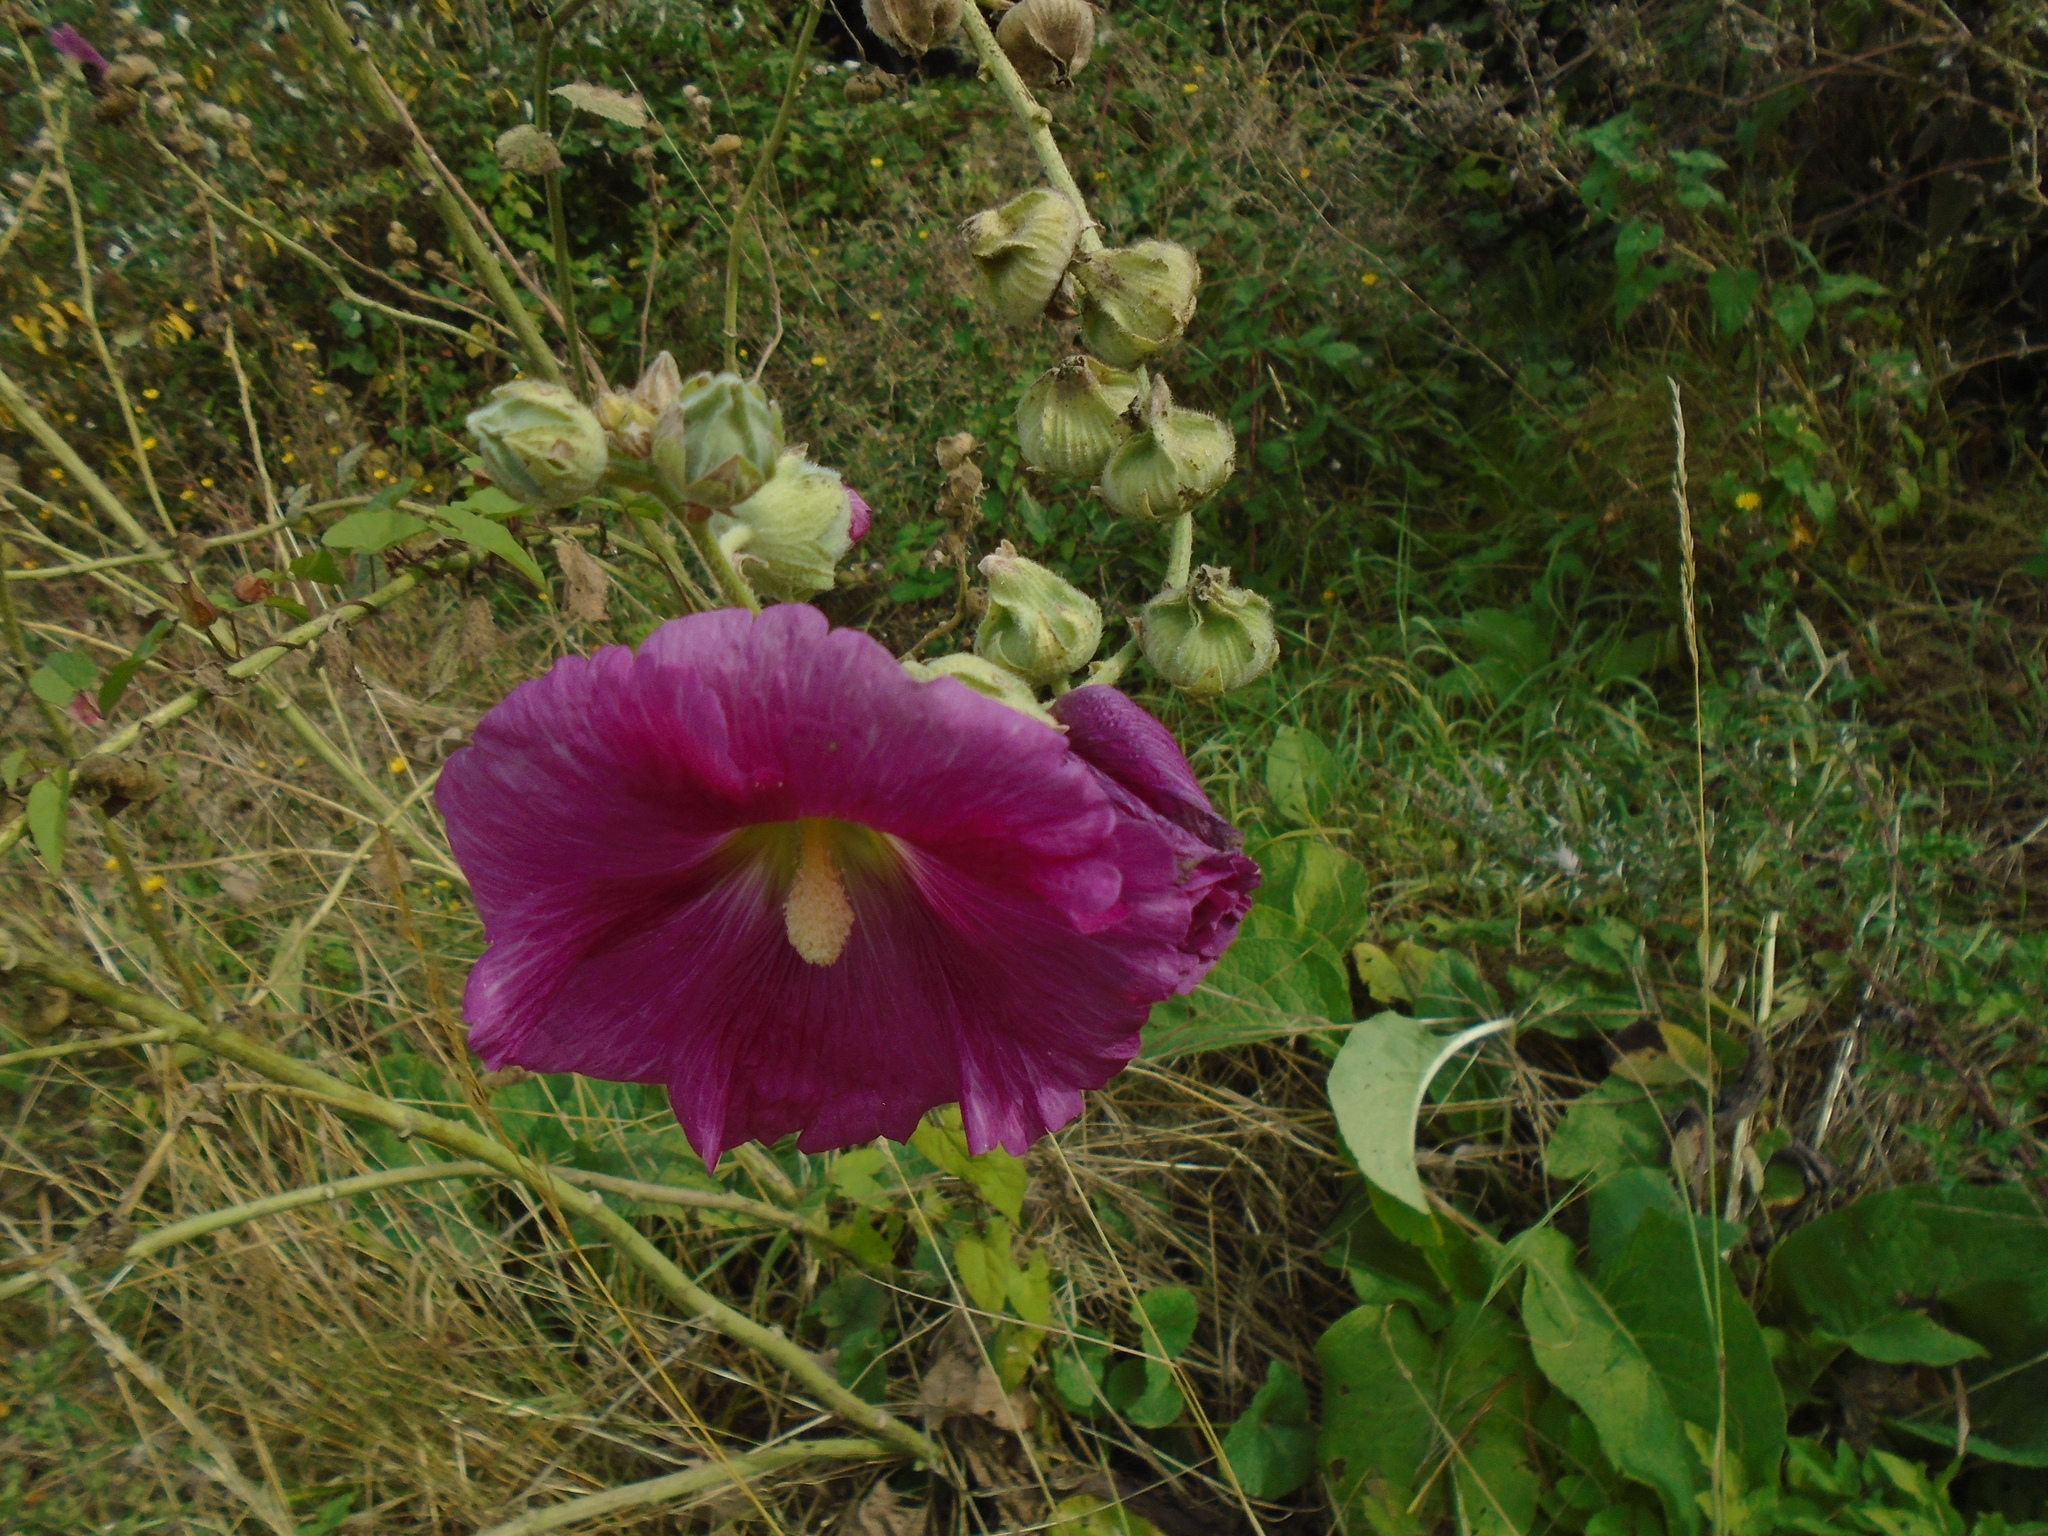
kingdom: Plantae
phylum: Tracheophyta
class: Magnoliopsida
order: Malvales
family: Malvaceae
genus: Alcea
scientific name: Alcea rosea
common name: Hollyhock
